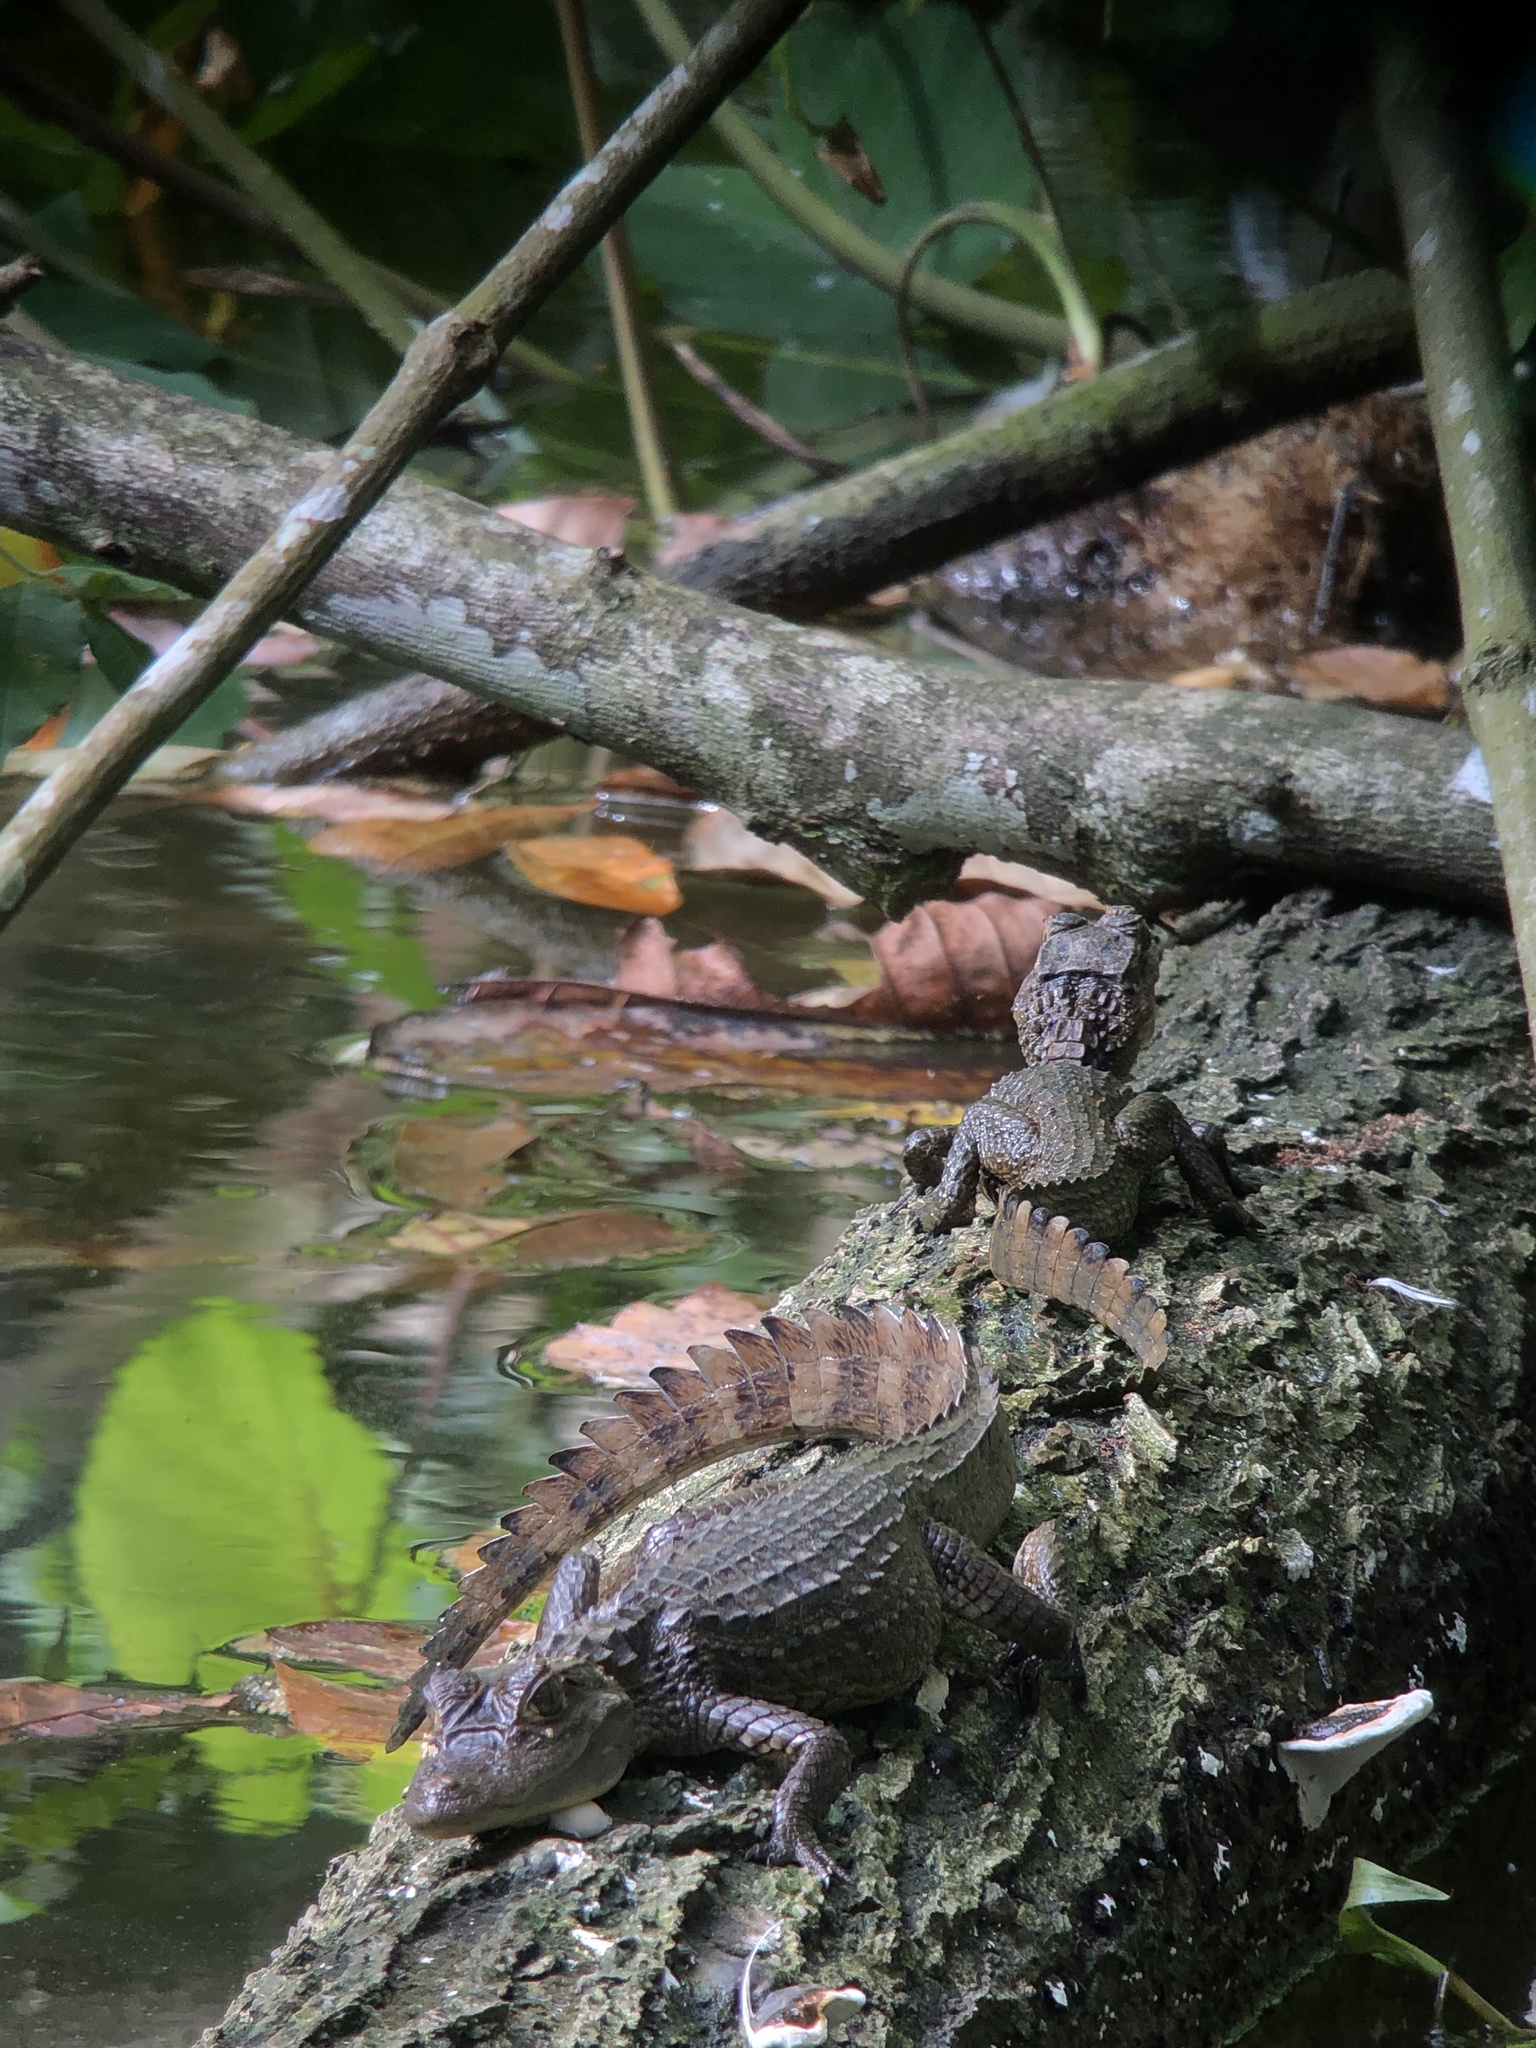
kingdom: Animalia
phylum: Chordata
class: Crocodylia
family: Alligatoridae
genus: Caiman
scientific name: Caiman crocodilus
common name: Common caiman
